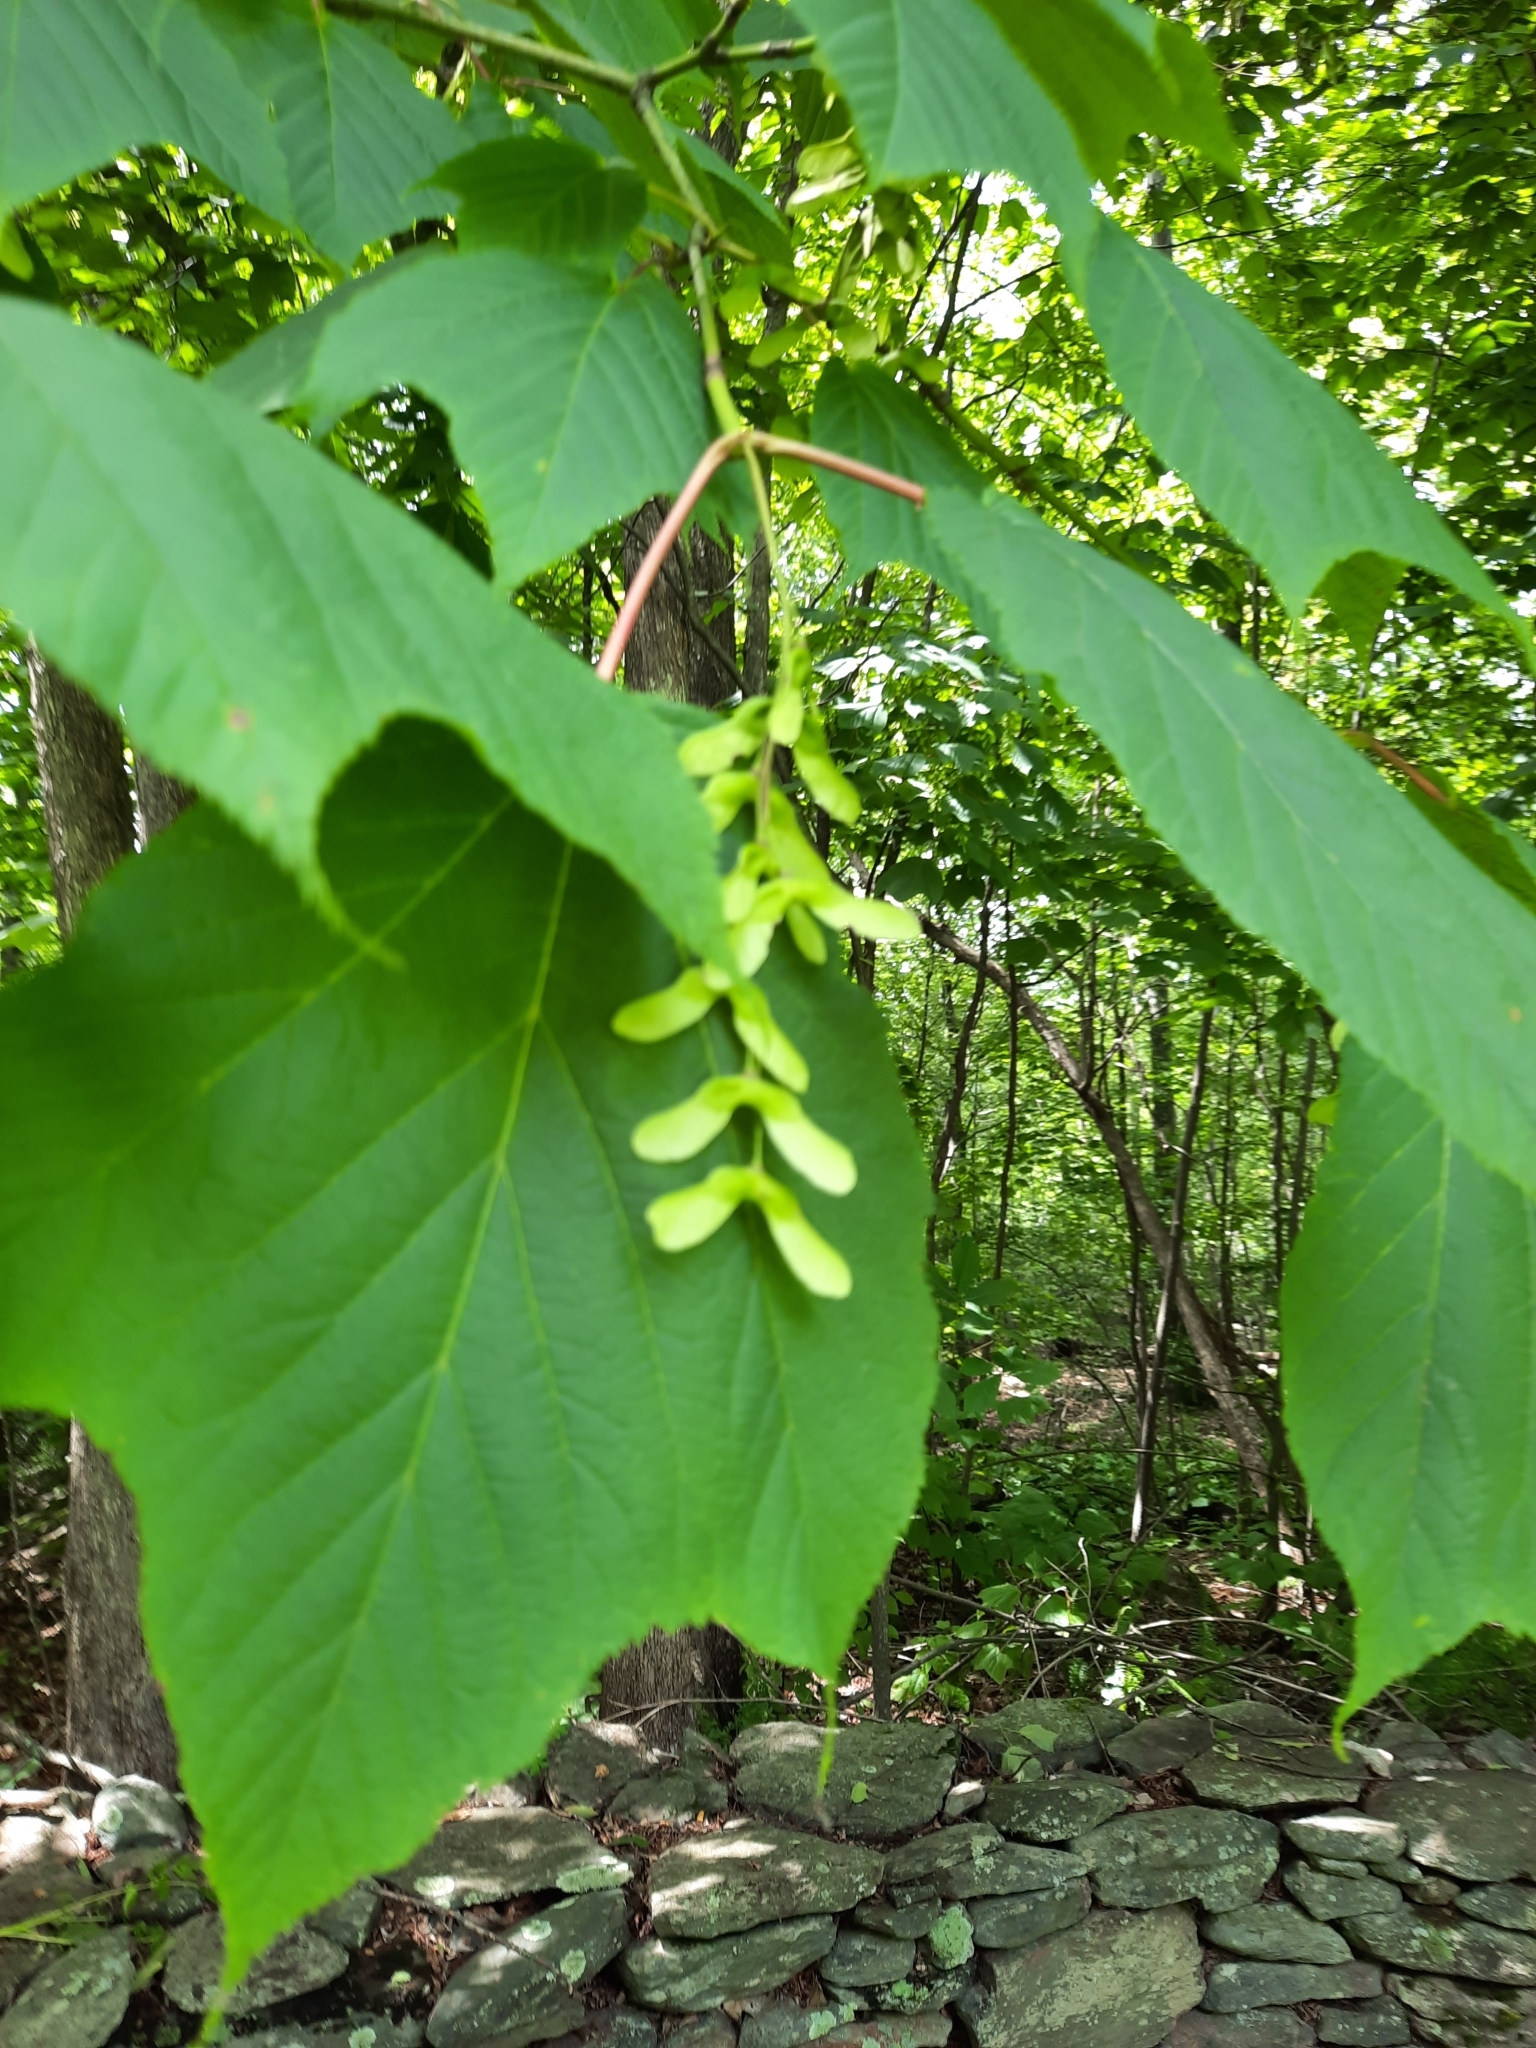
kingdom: Plantae
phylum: Tracheophyta
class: Magnoliopsida
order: Sapindales
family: Sapindaceae
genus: Acer
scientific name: Acer pensylvanicum
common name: Moosewood
